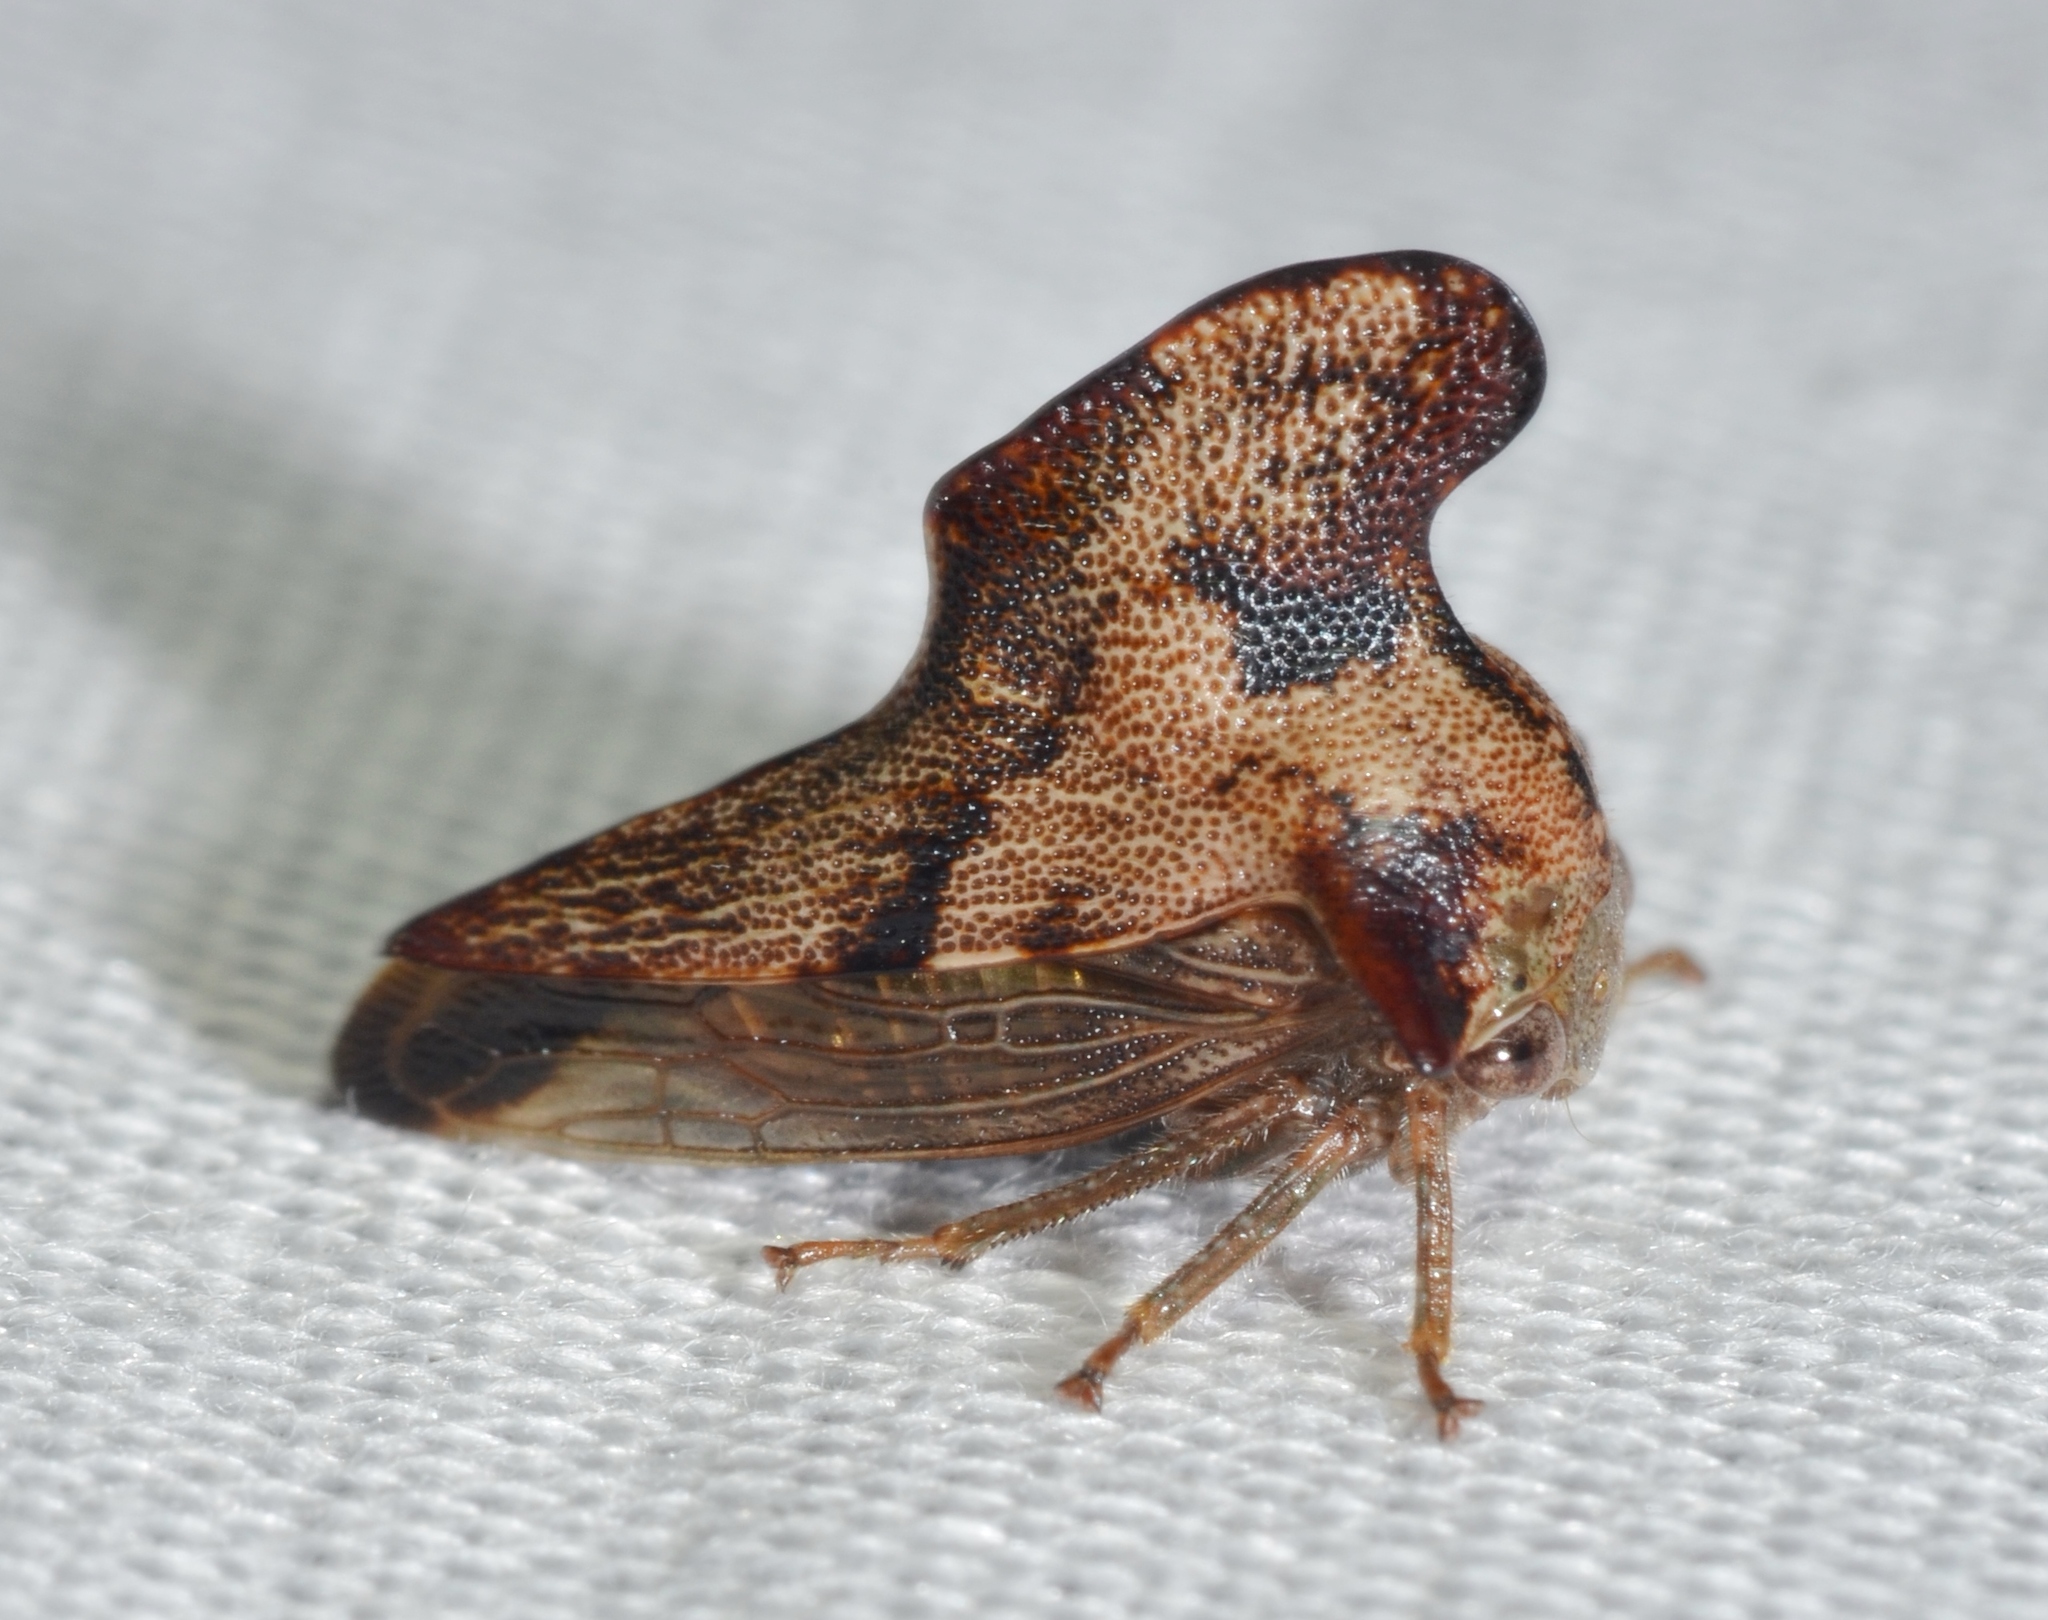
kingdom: Animalia
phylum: Arthropoda
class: Insecta
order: Hemiptera
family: Membracidae
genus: Telamona
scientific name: Telamona projecta
